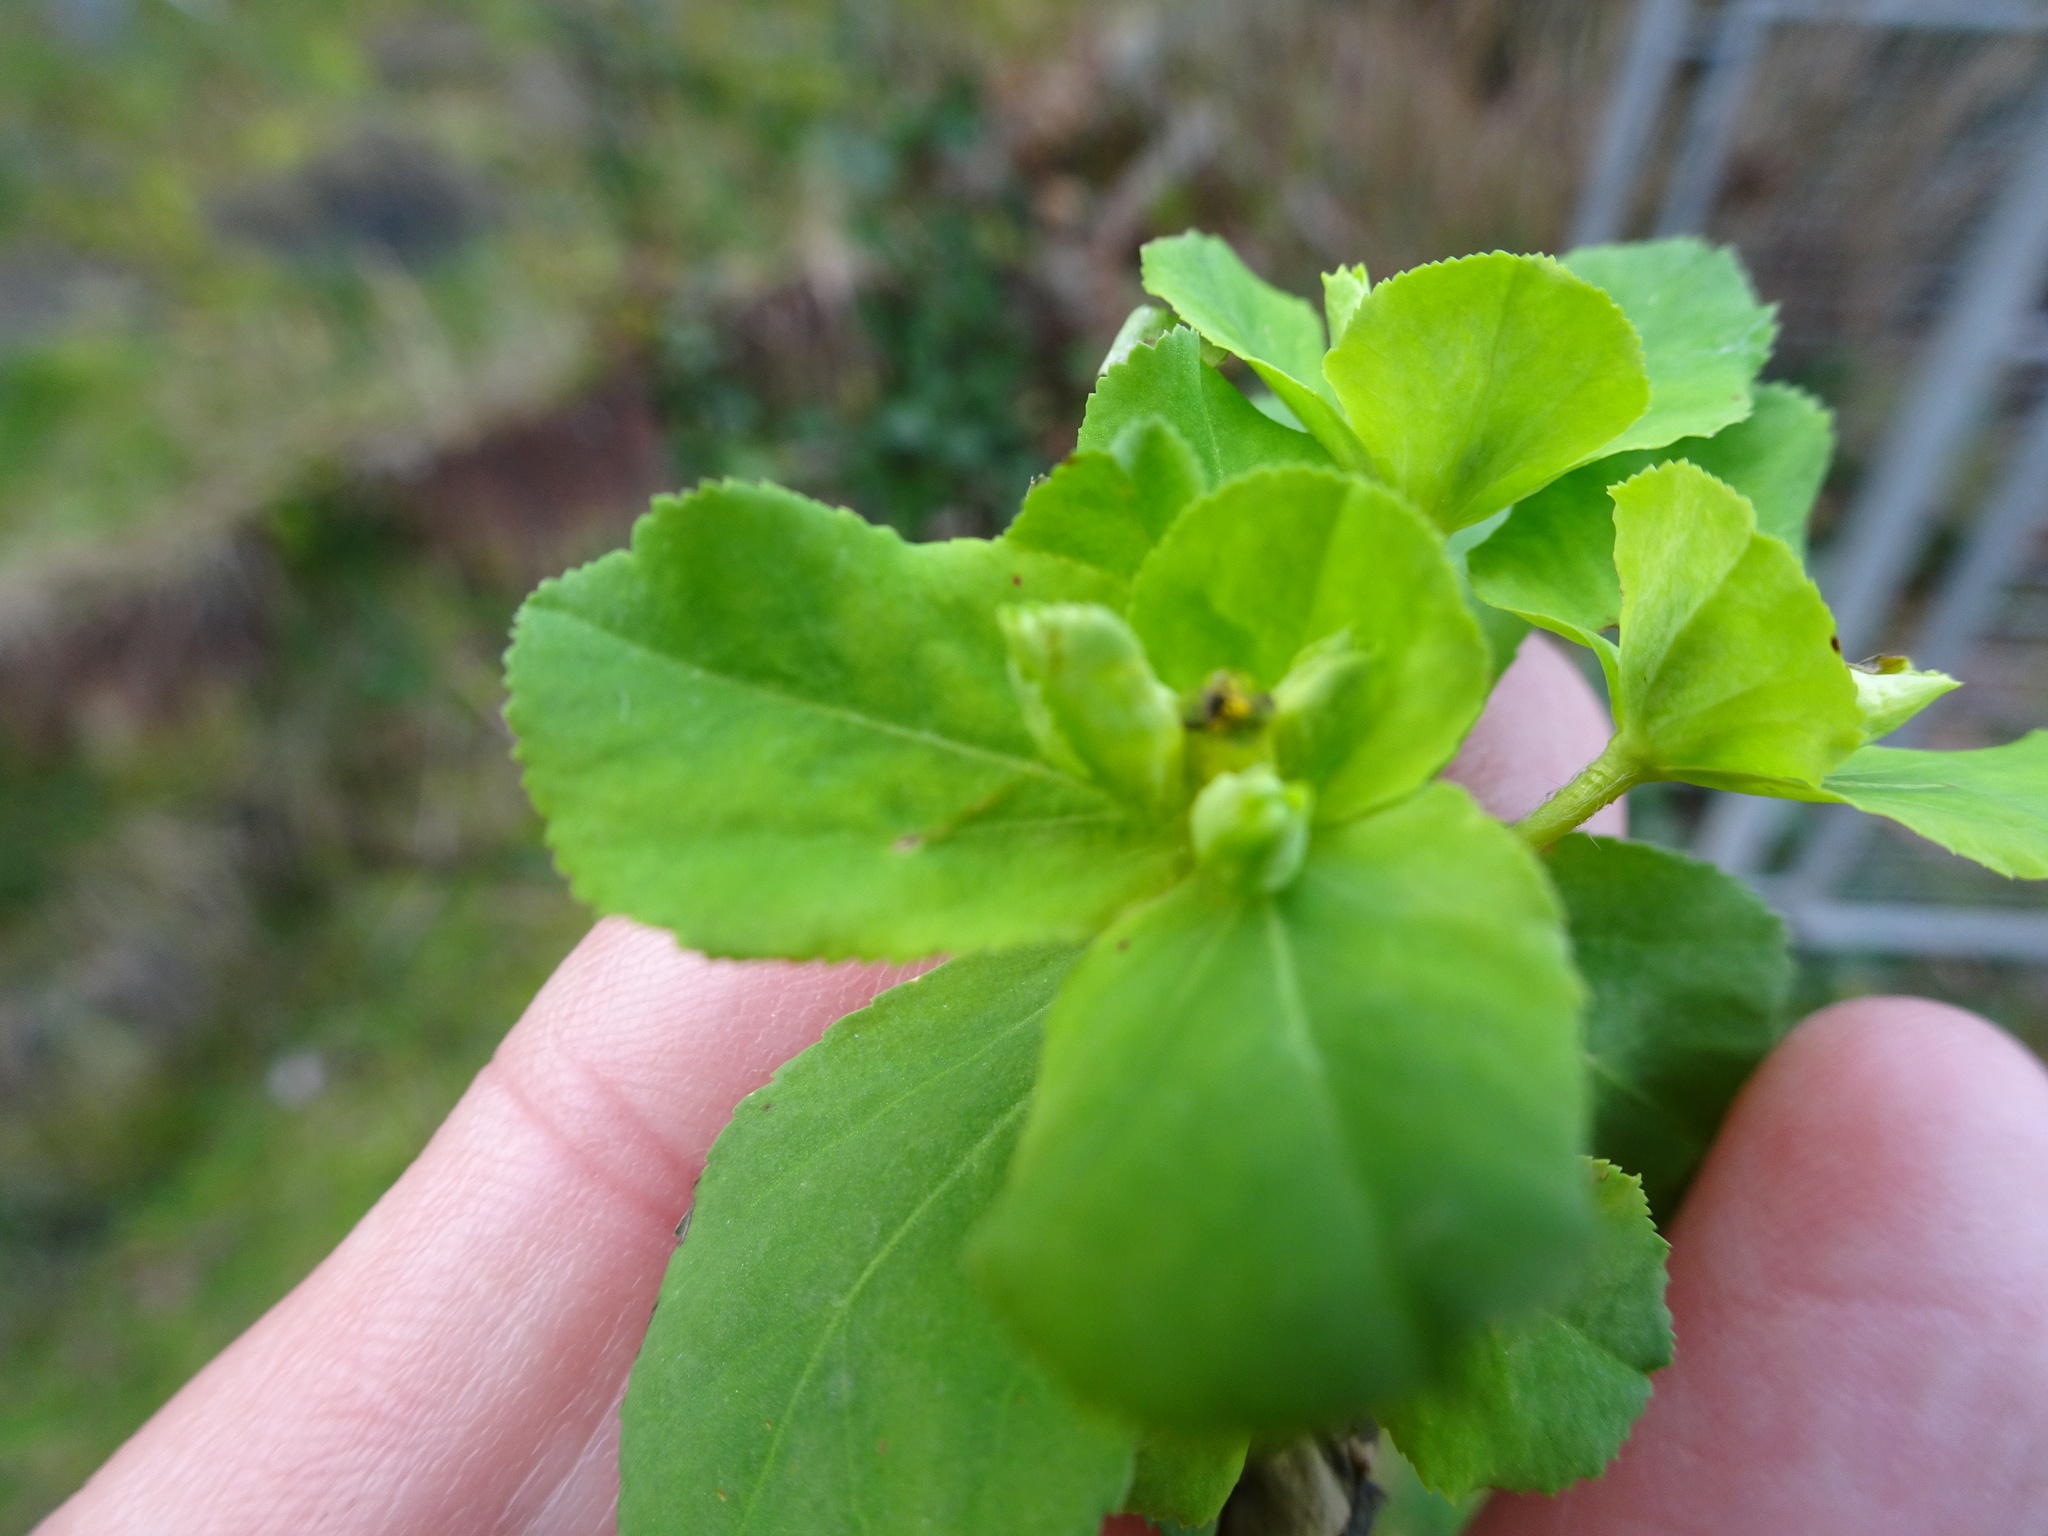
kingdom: Plantae
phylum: Tracheophyta
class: Magnoliopsida
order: Malpighiales
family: Euphorbiaceae
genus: Euphorbia
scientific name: Euphorbia helioscopia
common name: Sun spurge
